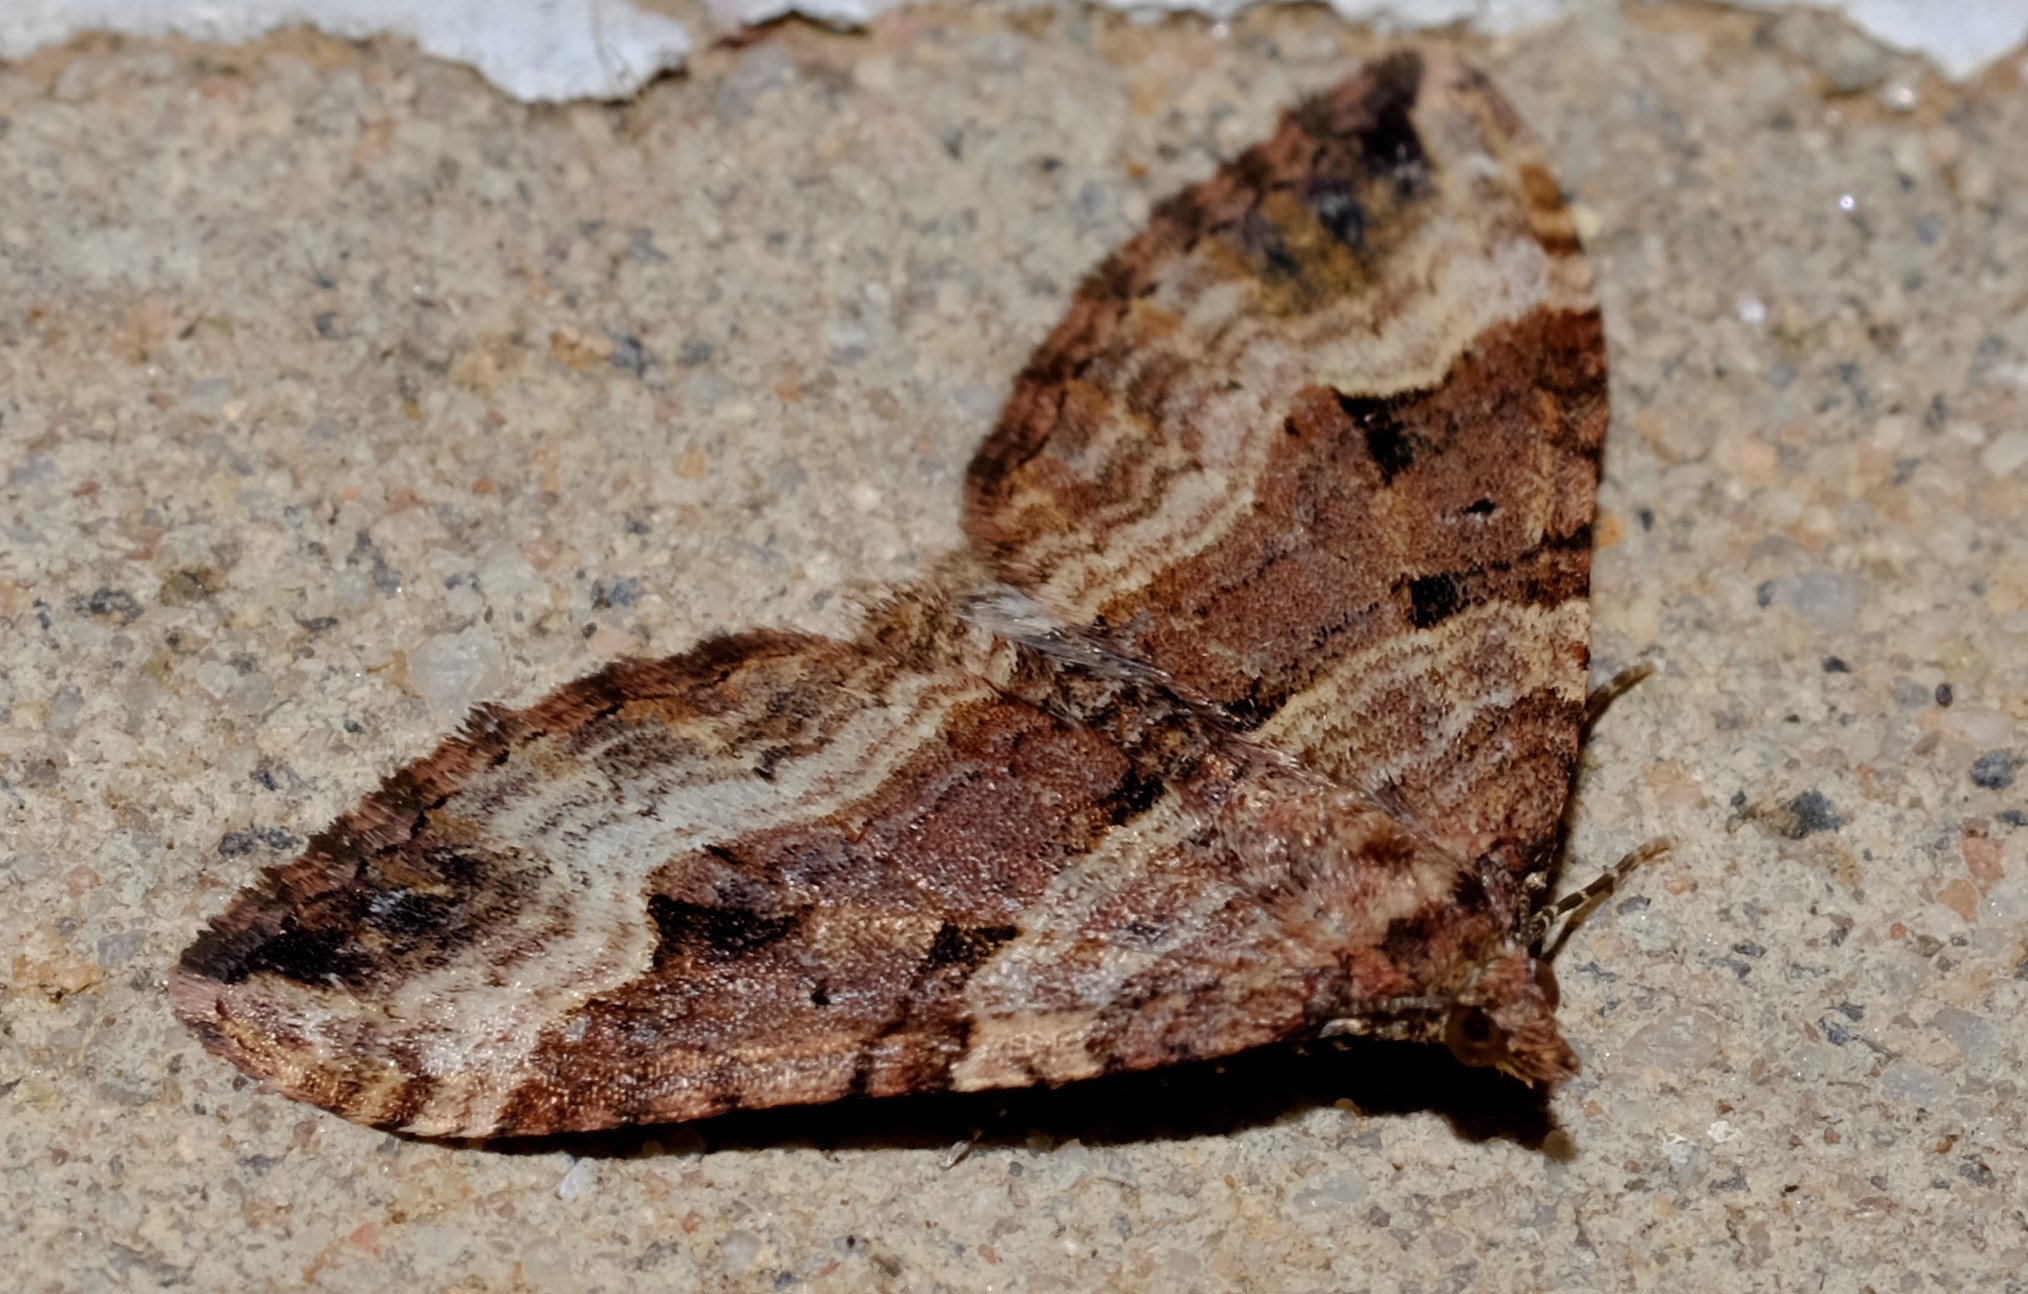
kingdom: Animalia
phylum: Arthropoda
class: Insecta
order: Lepidoptera
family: Geometridae
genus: Epyaxa
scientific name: Epyaxa subidaria
